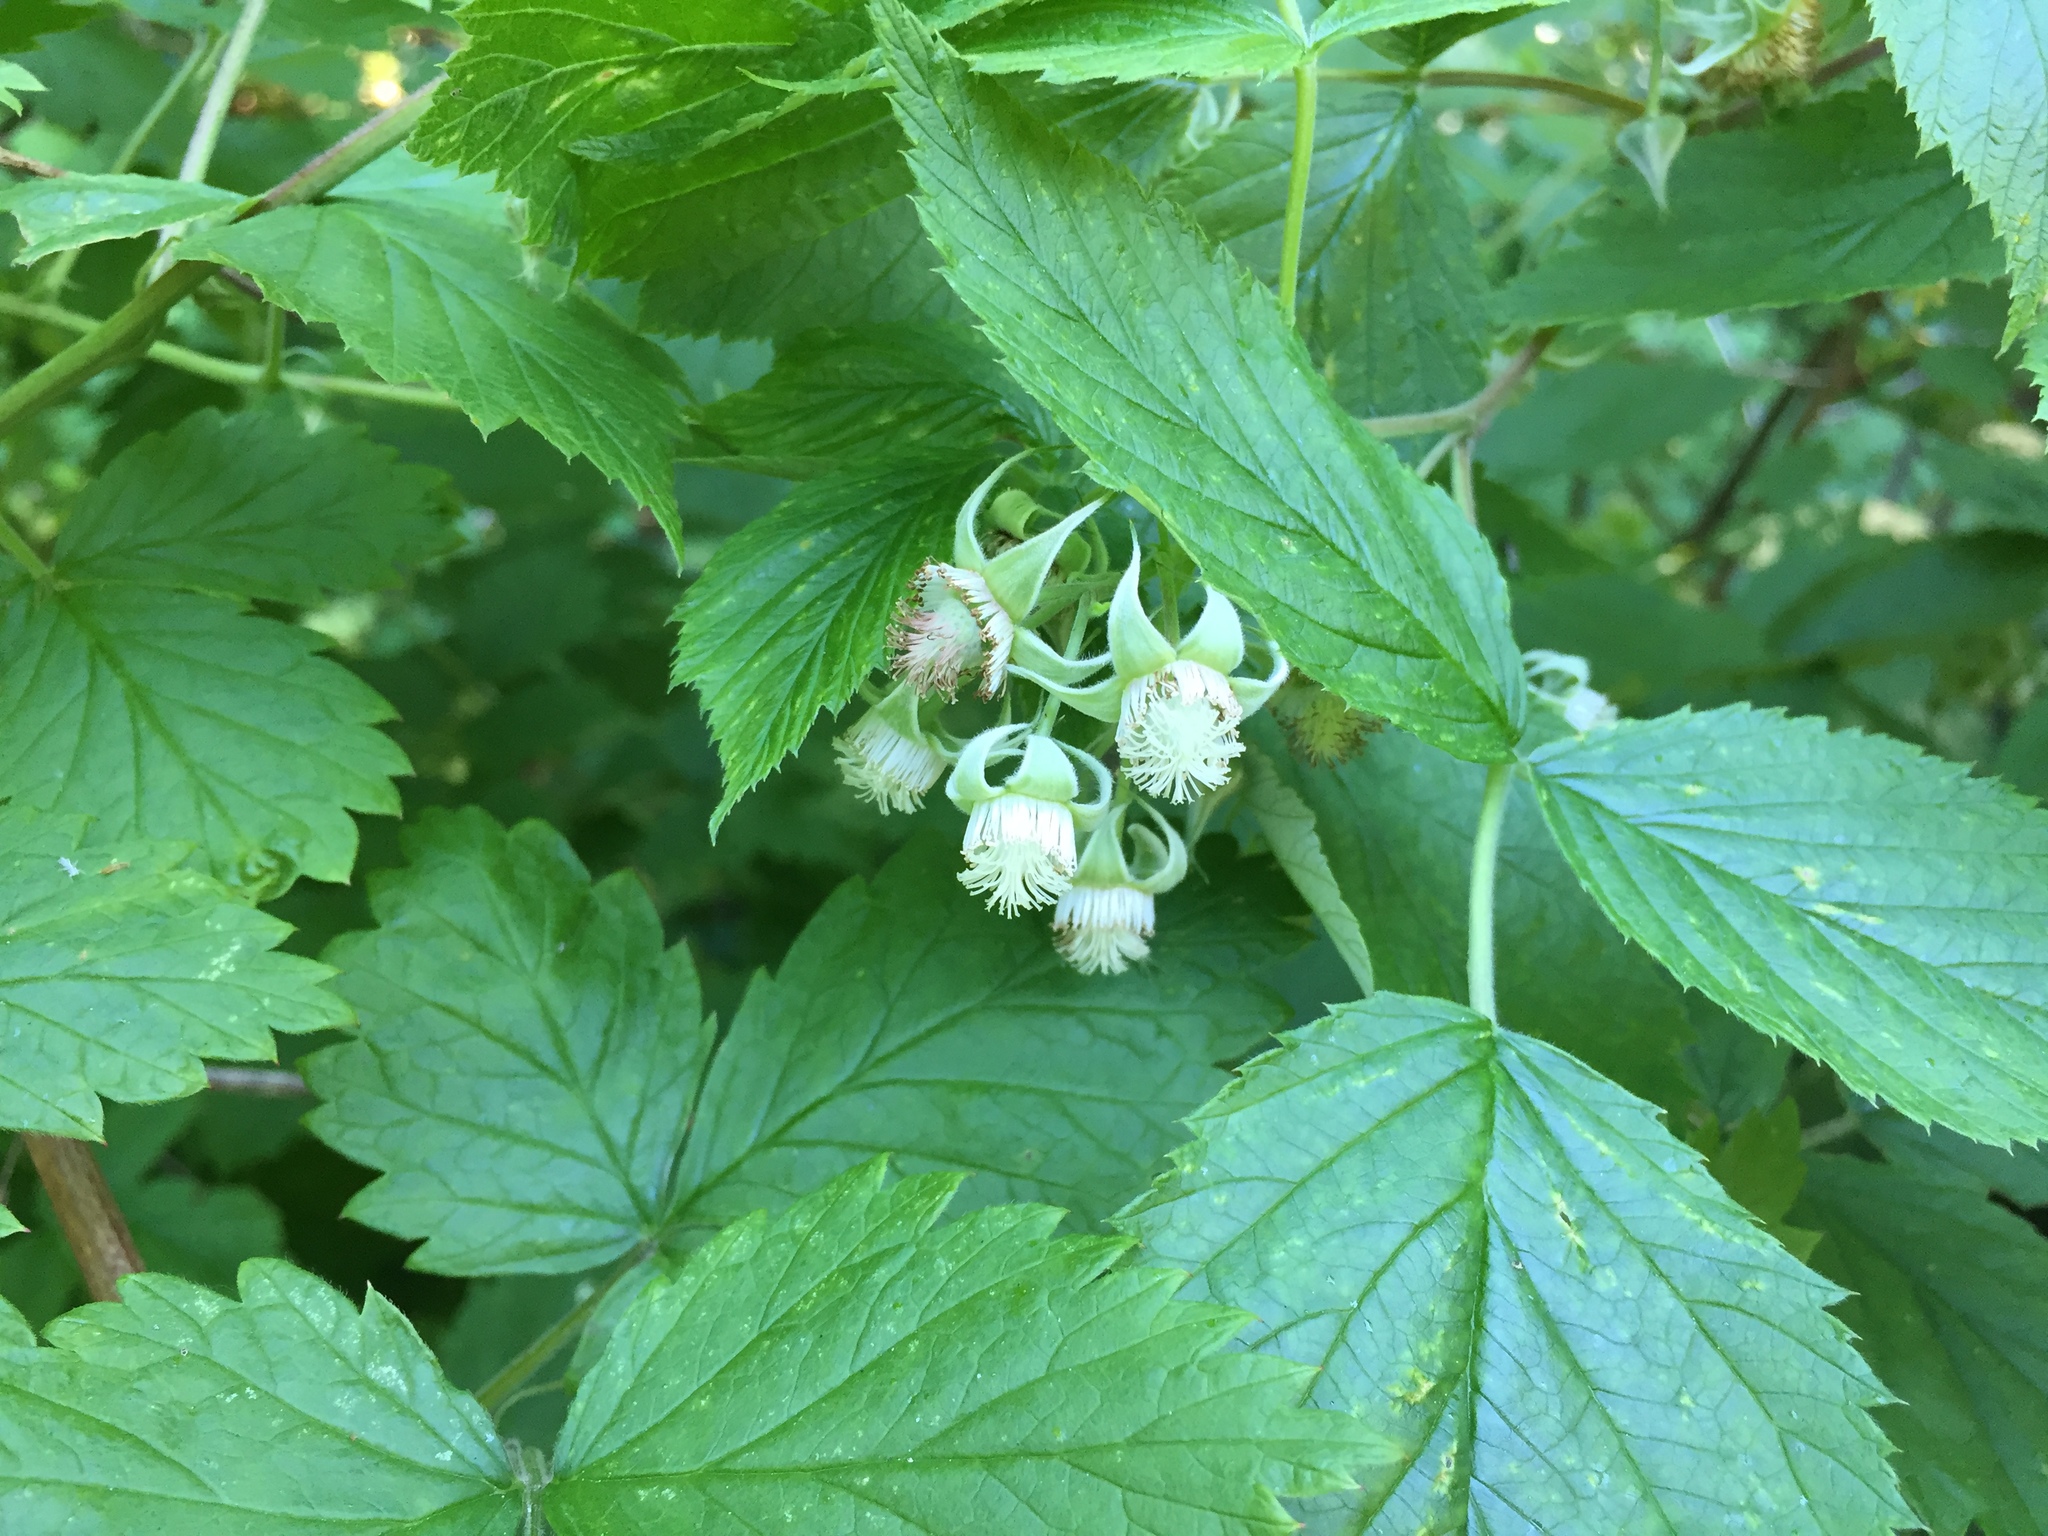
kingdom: Plantae
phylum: Tracheophyta
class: Magnoliopsida
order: Rosales
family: Rosaceae
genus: Rubus
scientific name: Rubus idaeus
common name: Raspberry
